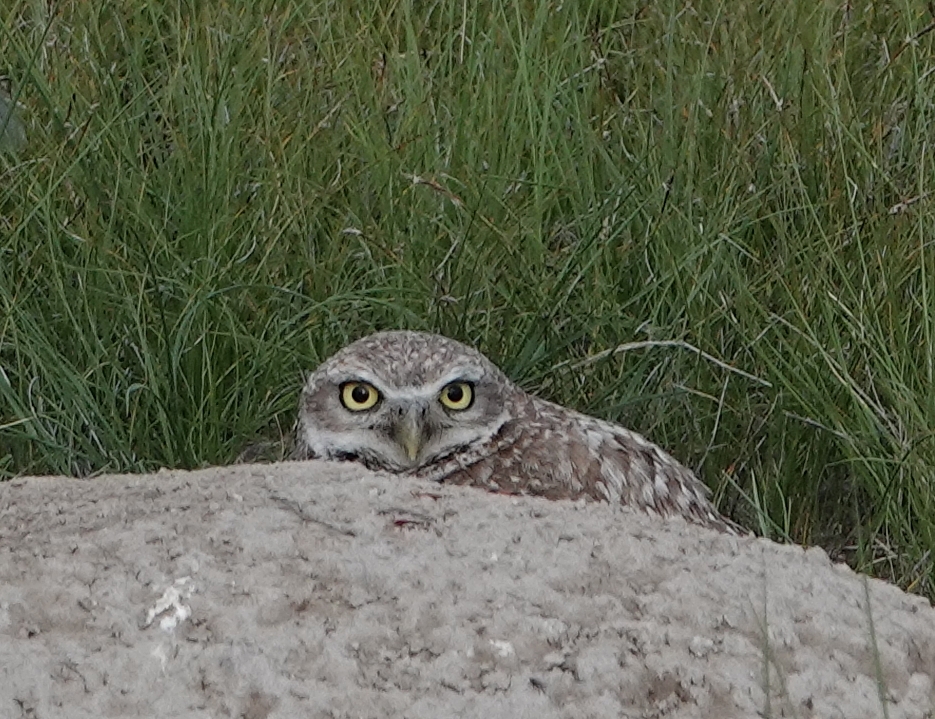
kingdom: Animalia
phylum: Chordata
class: Aves
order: Strigiformes
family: Strigidae
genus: Athene
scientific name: Athene cunicularia
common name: Burrowing owl
